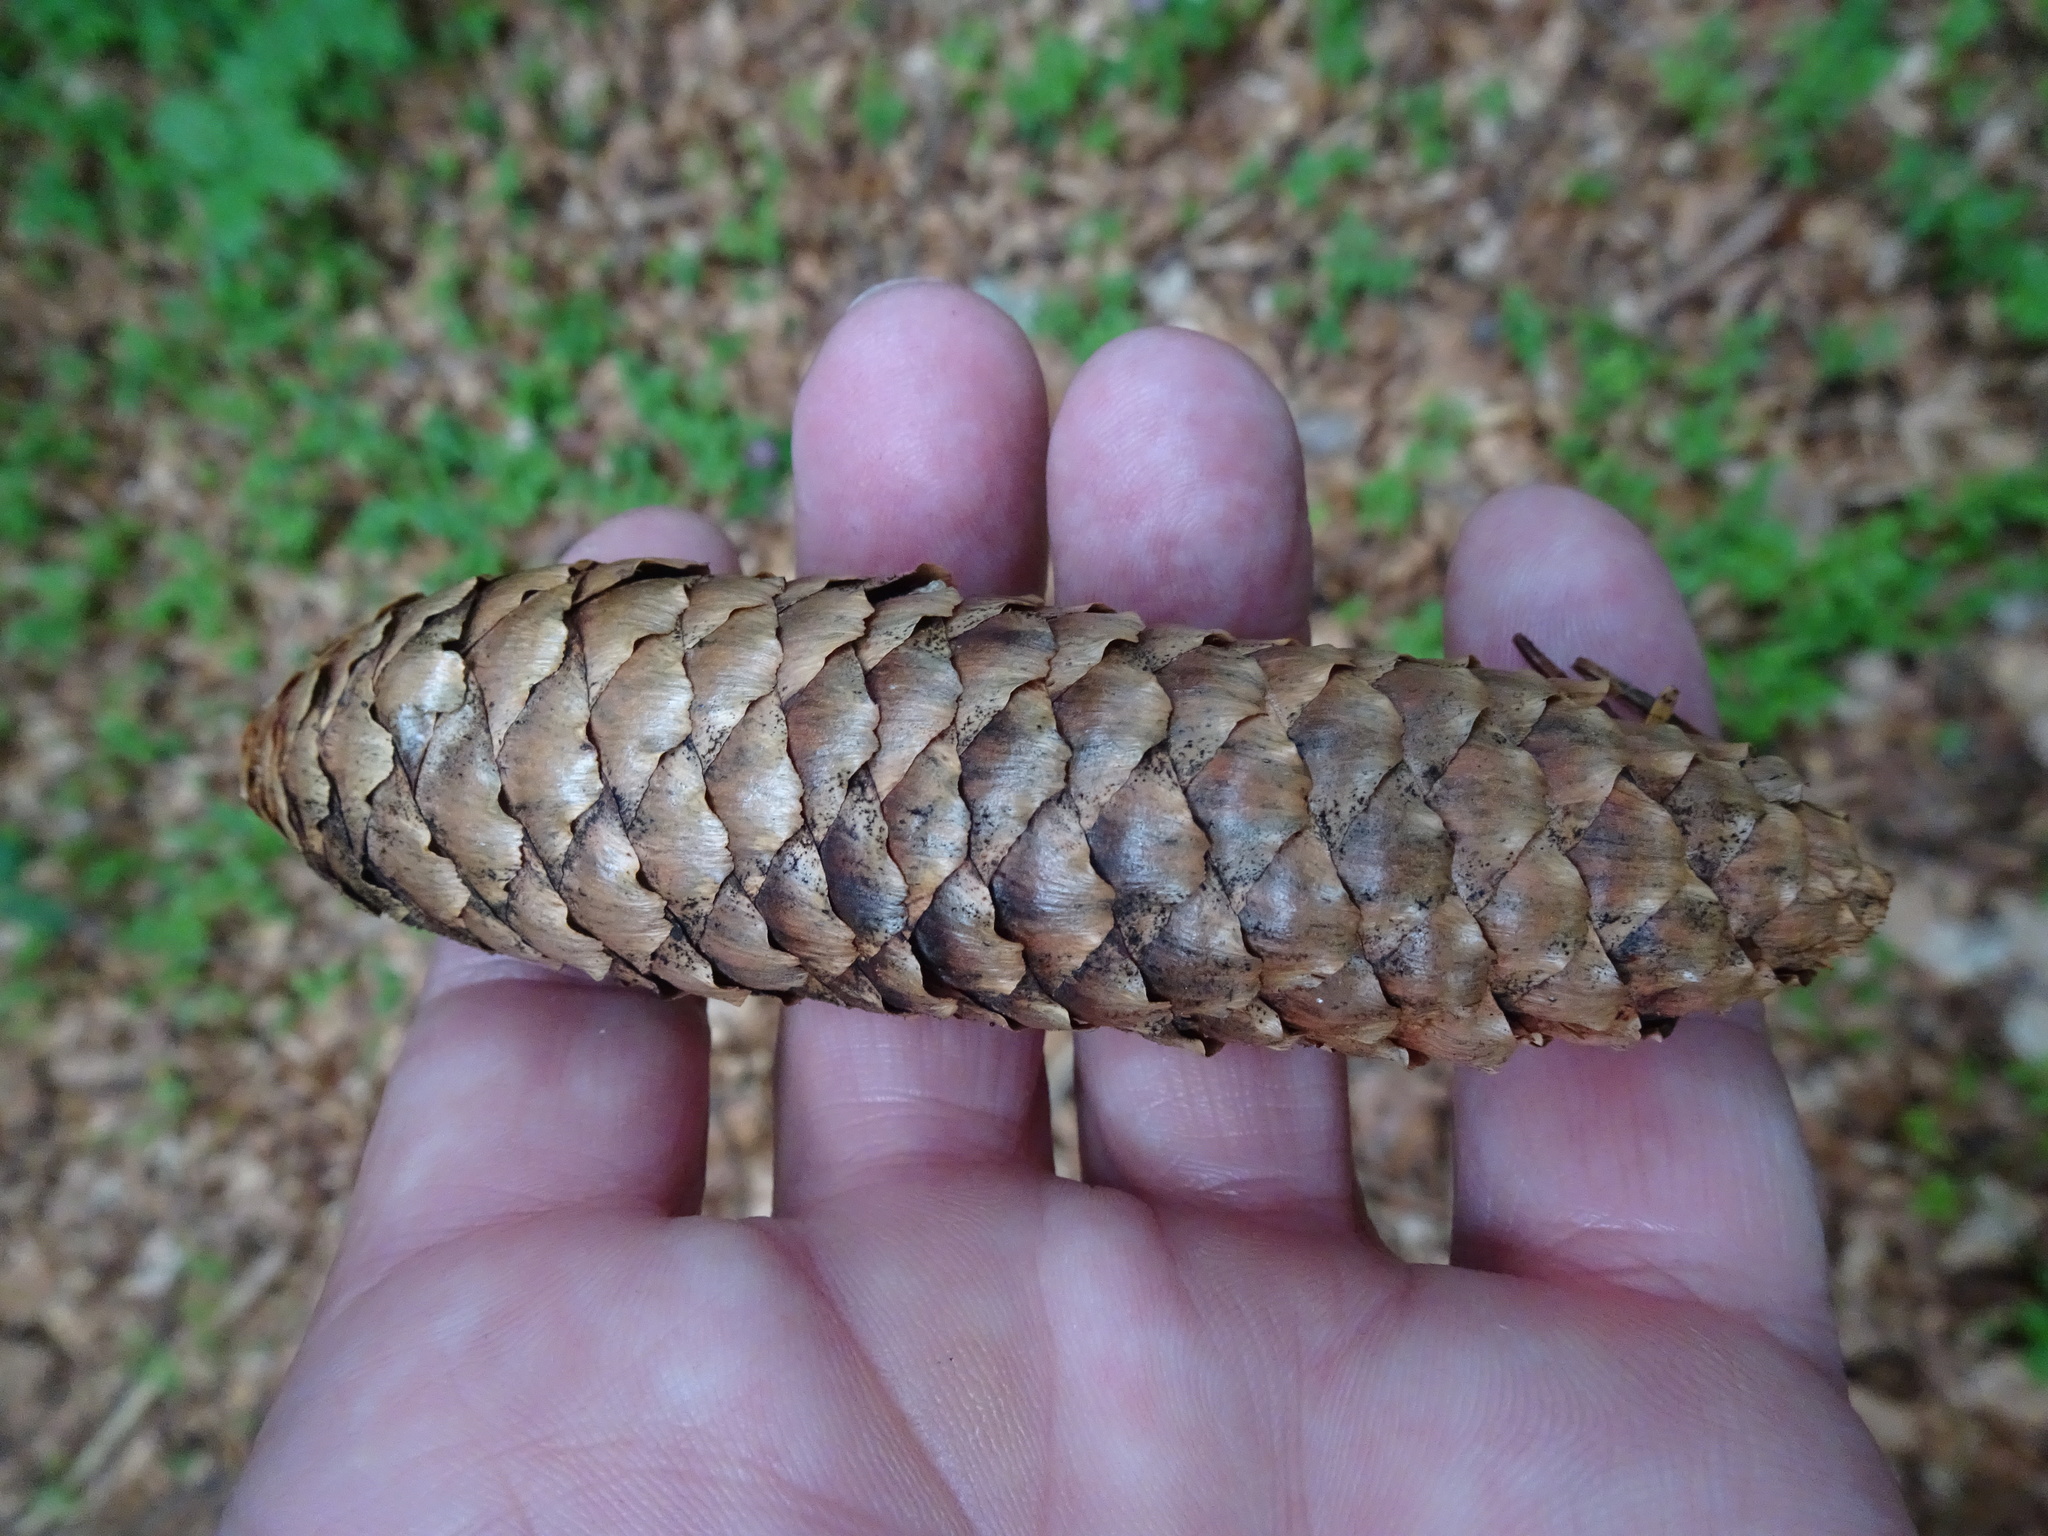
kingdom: Plantae
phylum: Tracheophyta
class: Pinopsida
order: Pinales
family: Pinaceae
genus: Picea
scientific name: Picea abies
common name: Norway spruce
